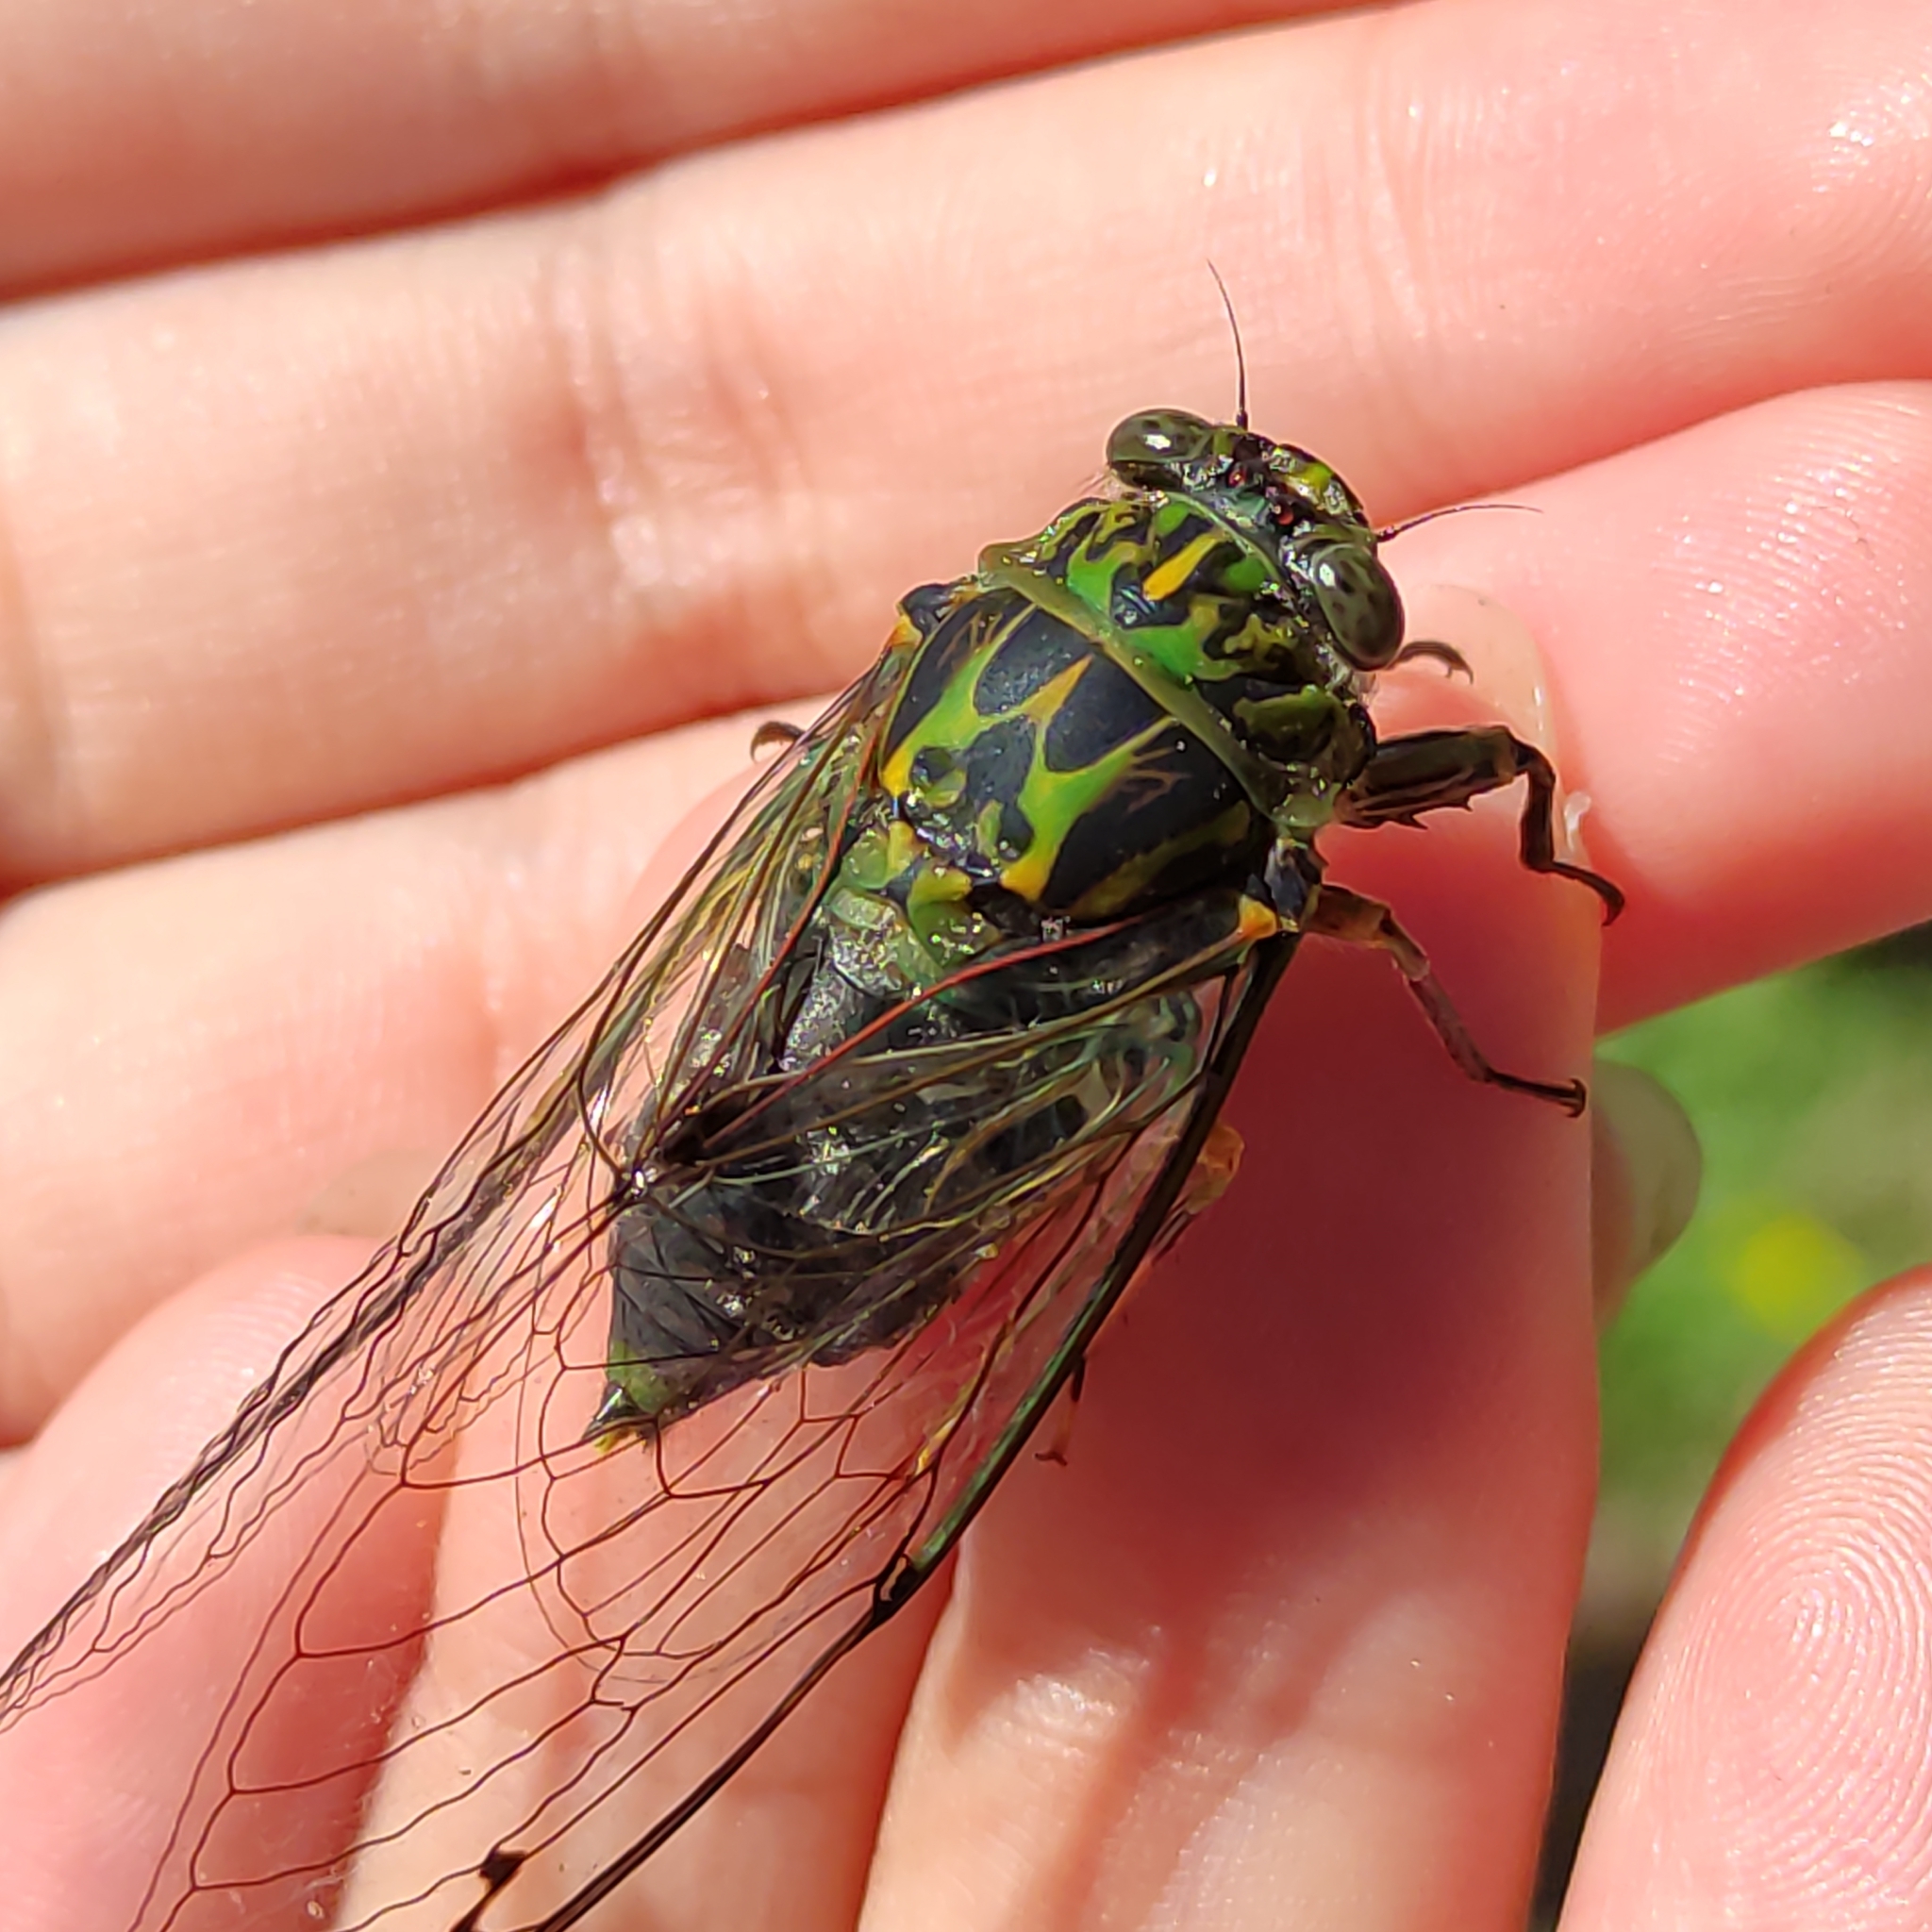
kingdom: Animalia
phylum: Arthropoda
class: Insecta
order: Hemiptera
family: Cicadidae
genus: Amphipsalta
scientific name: Amphipsalta zelandica
